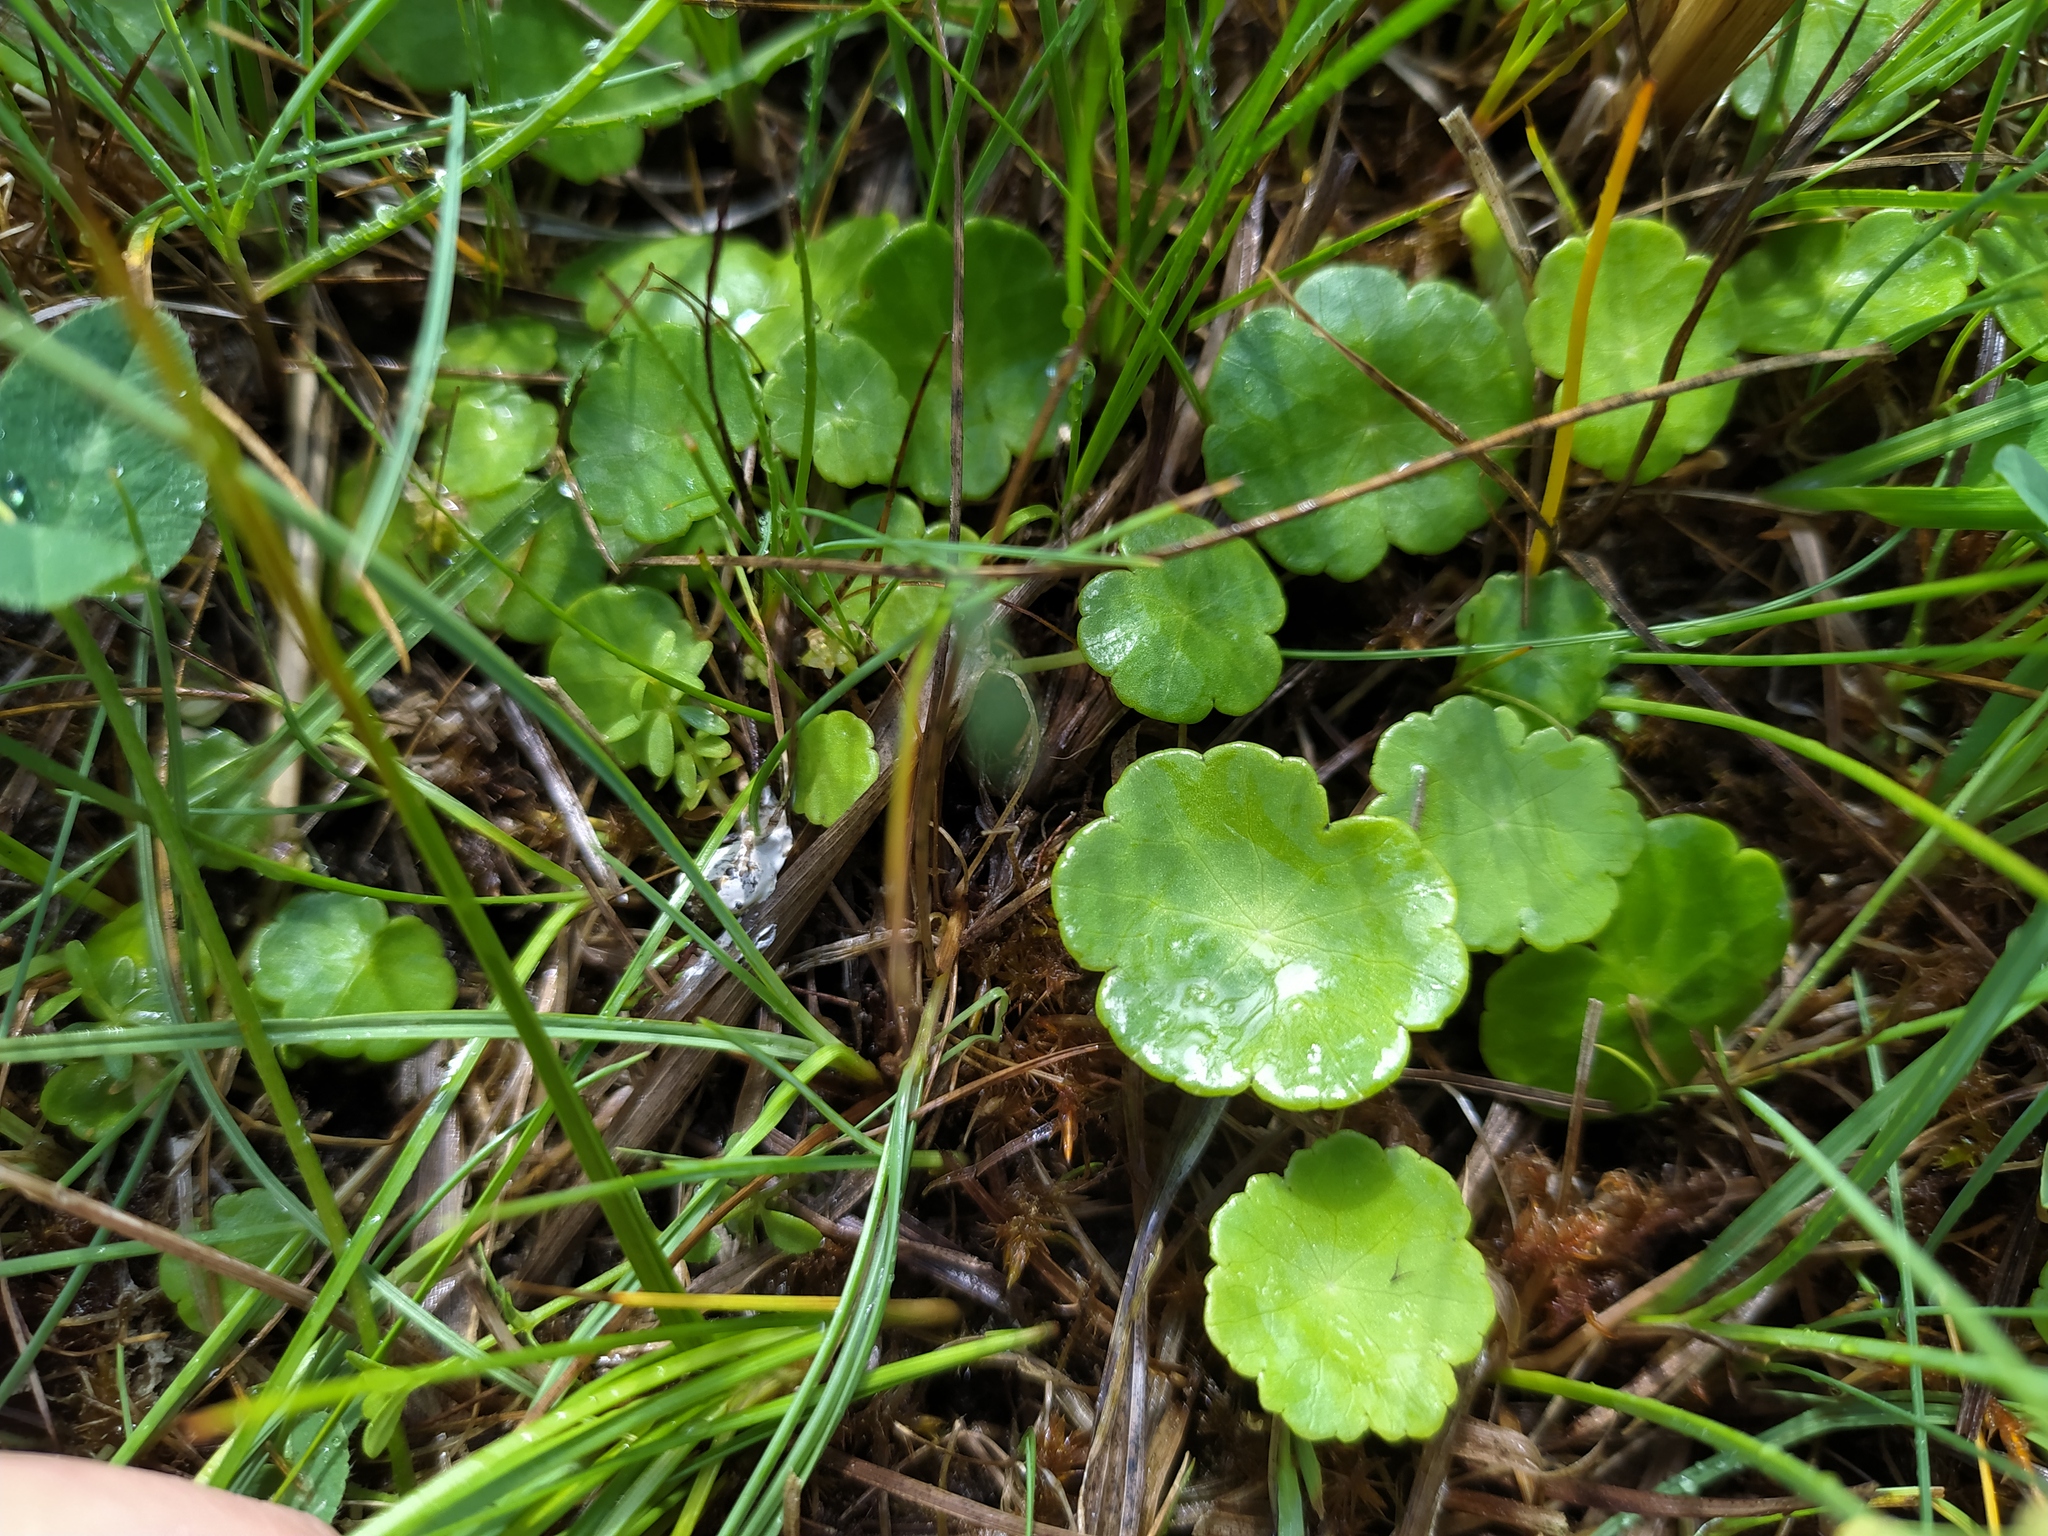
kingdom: Plantae
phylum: Tracheophyta
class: Magnoliopsida
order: Apiales
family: Araliaceae
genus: Hydrocotyle
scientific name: Hydrocotyle vulgaris
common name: Marsh pennywort
